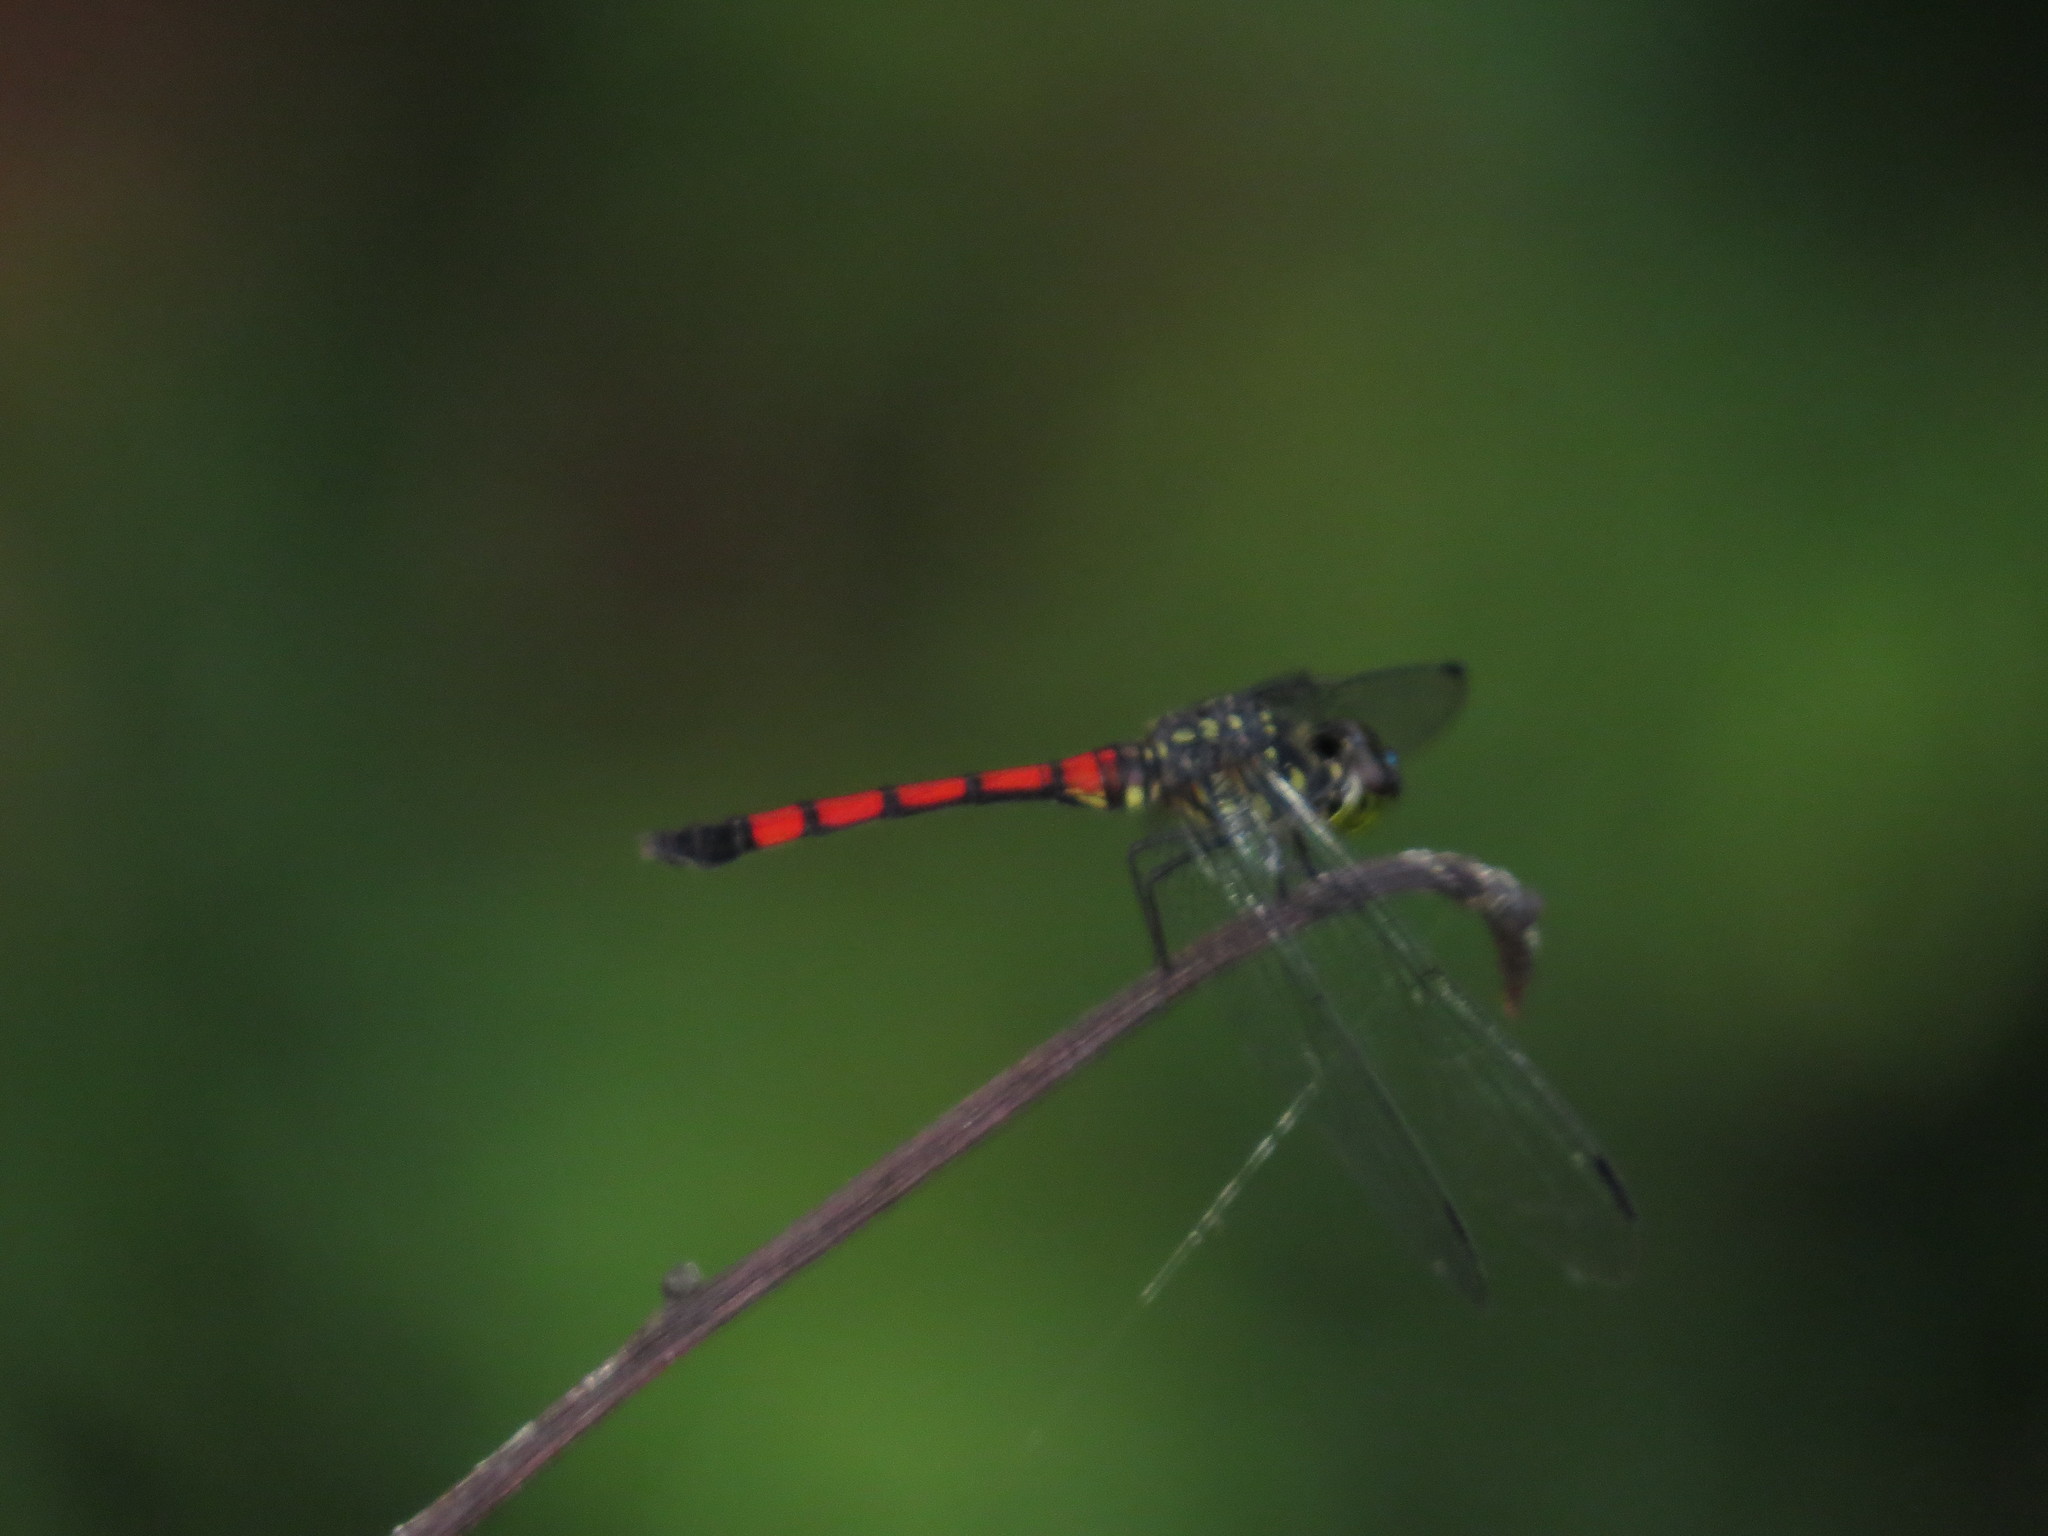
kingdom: Animalia
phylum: Arthropoda
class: Insecta
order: Odonata
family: Libellulidae
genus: Agrionoptera
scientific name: Agrionoptera insignis
